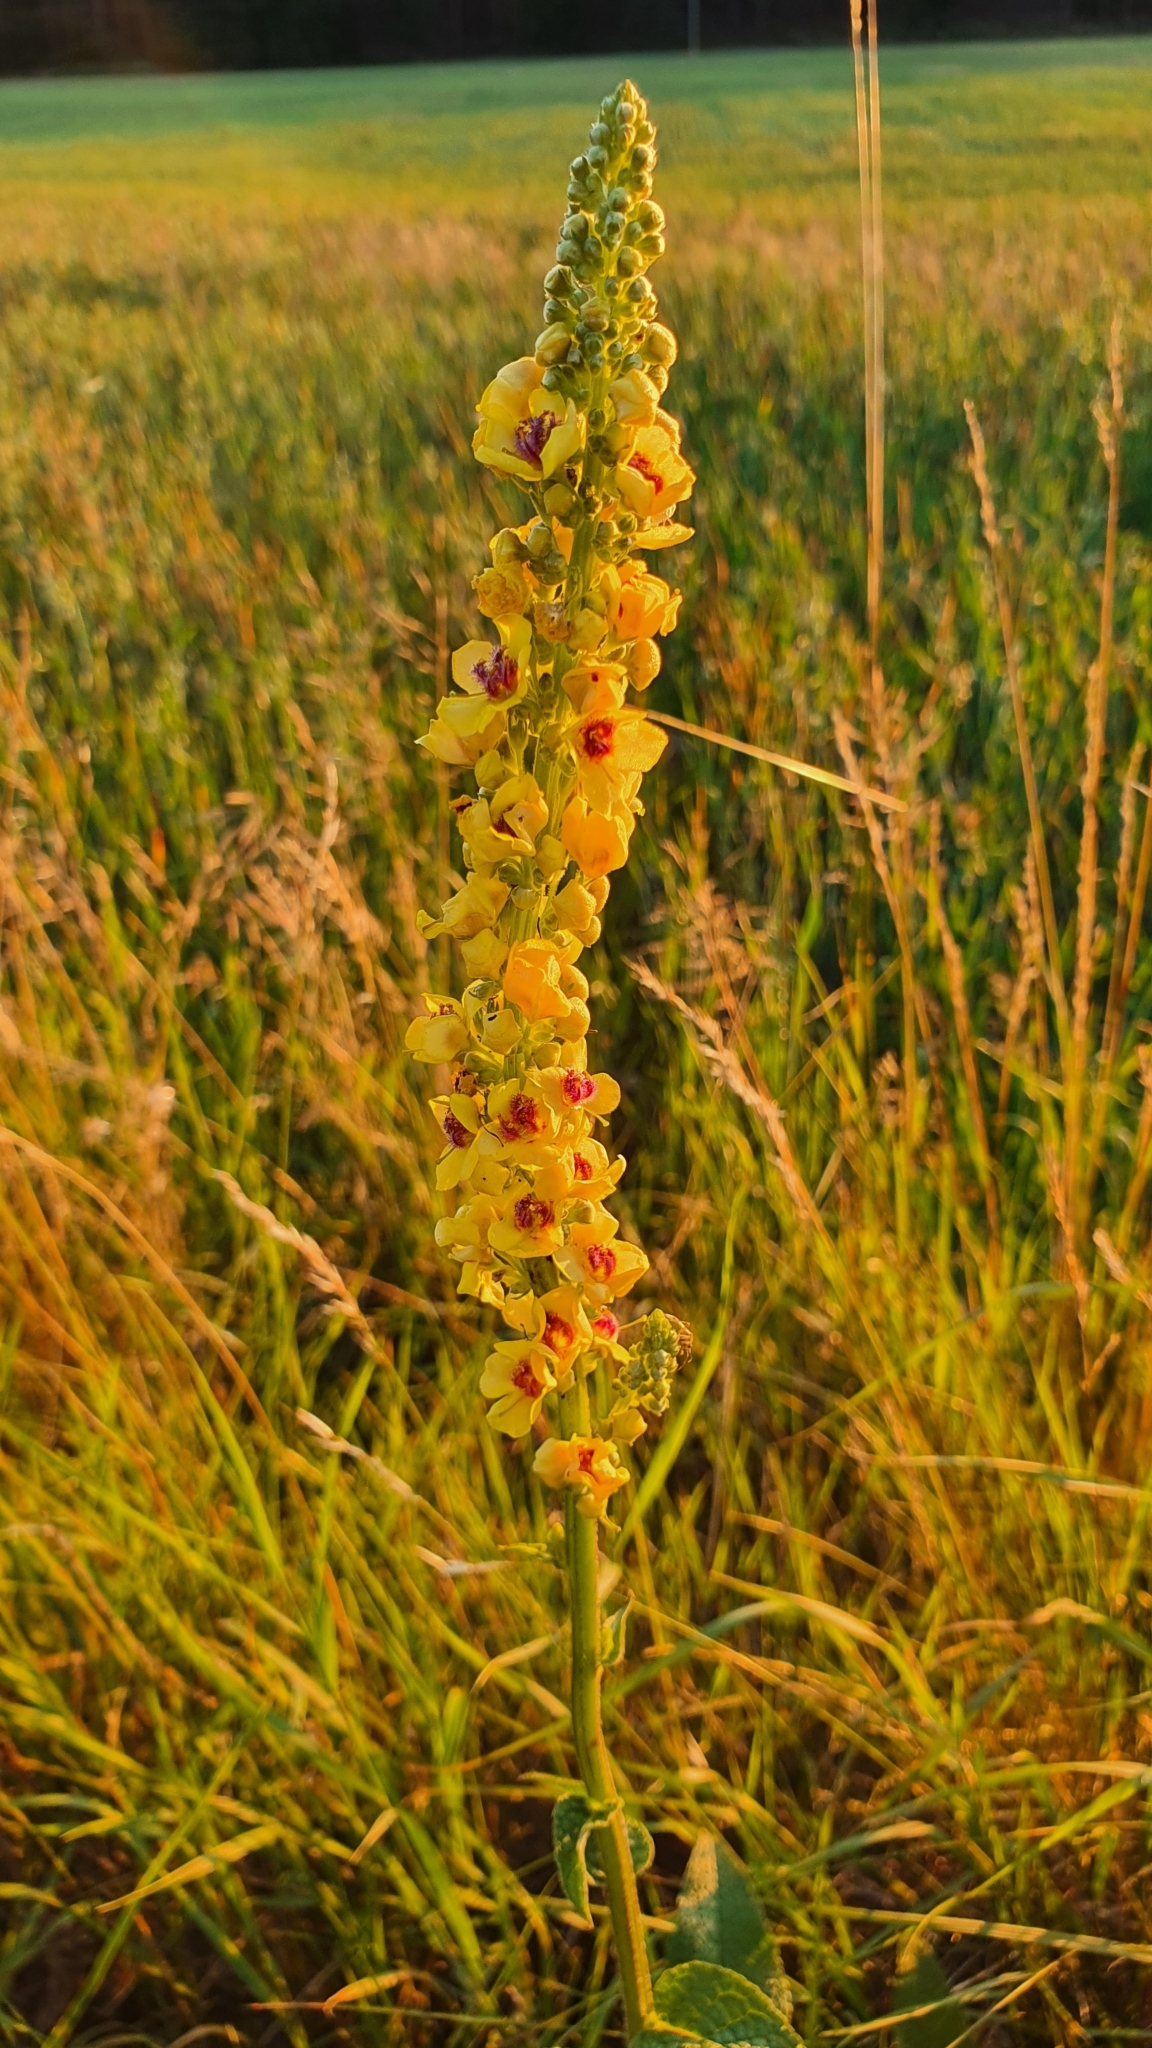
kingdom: Plantae
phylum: Tracheophyta
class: Magnoliopsida
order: Lamiales
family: Scrophulariaceae
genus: Verbascum
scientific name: Verbascum nigrum
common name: Dark mullein
